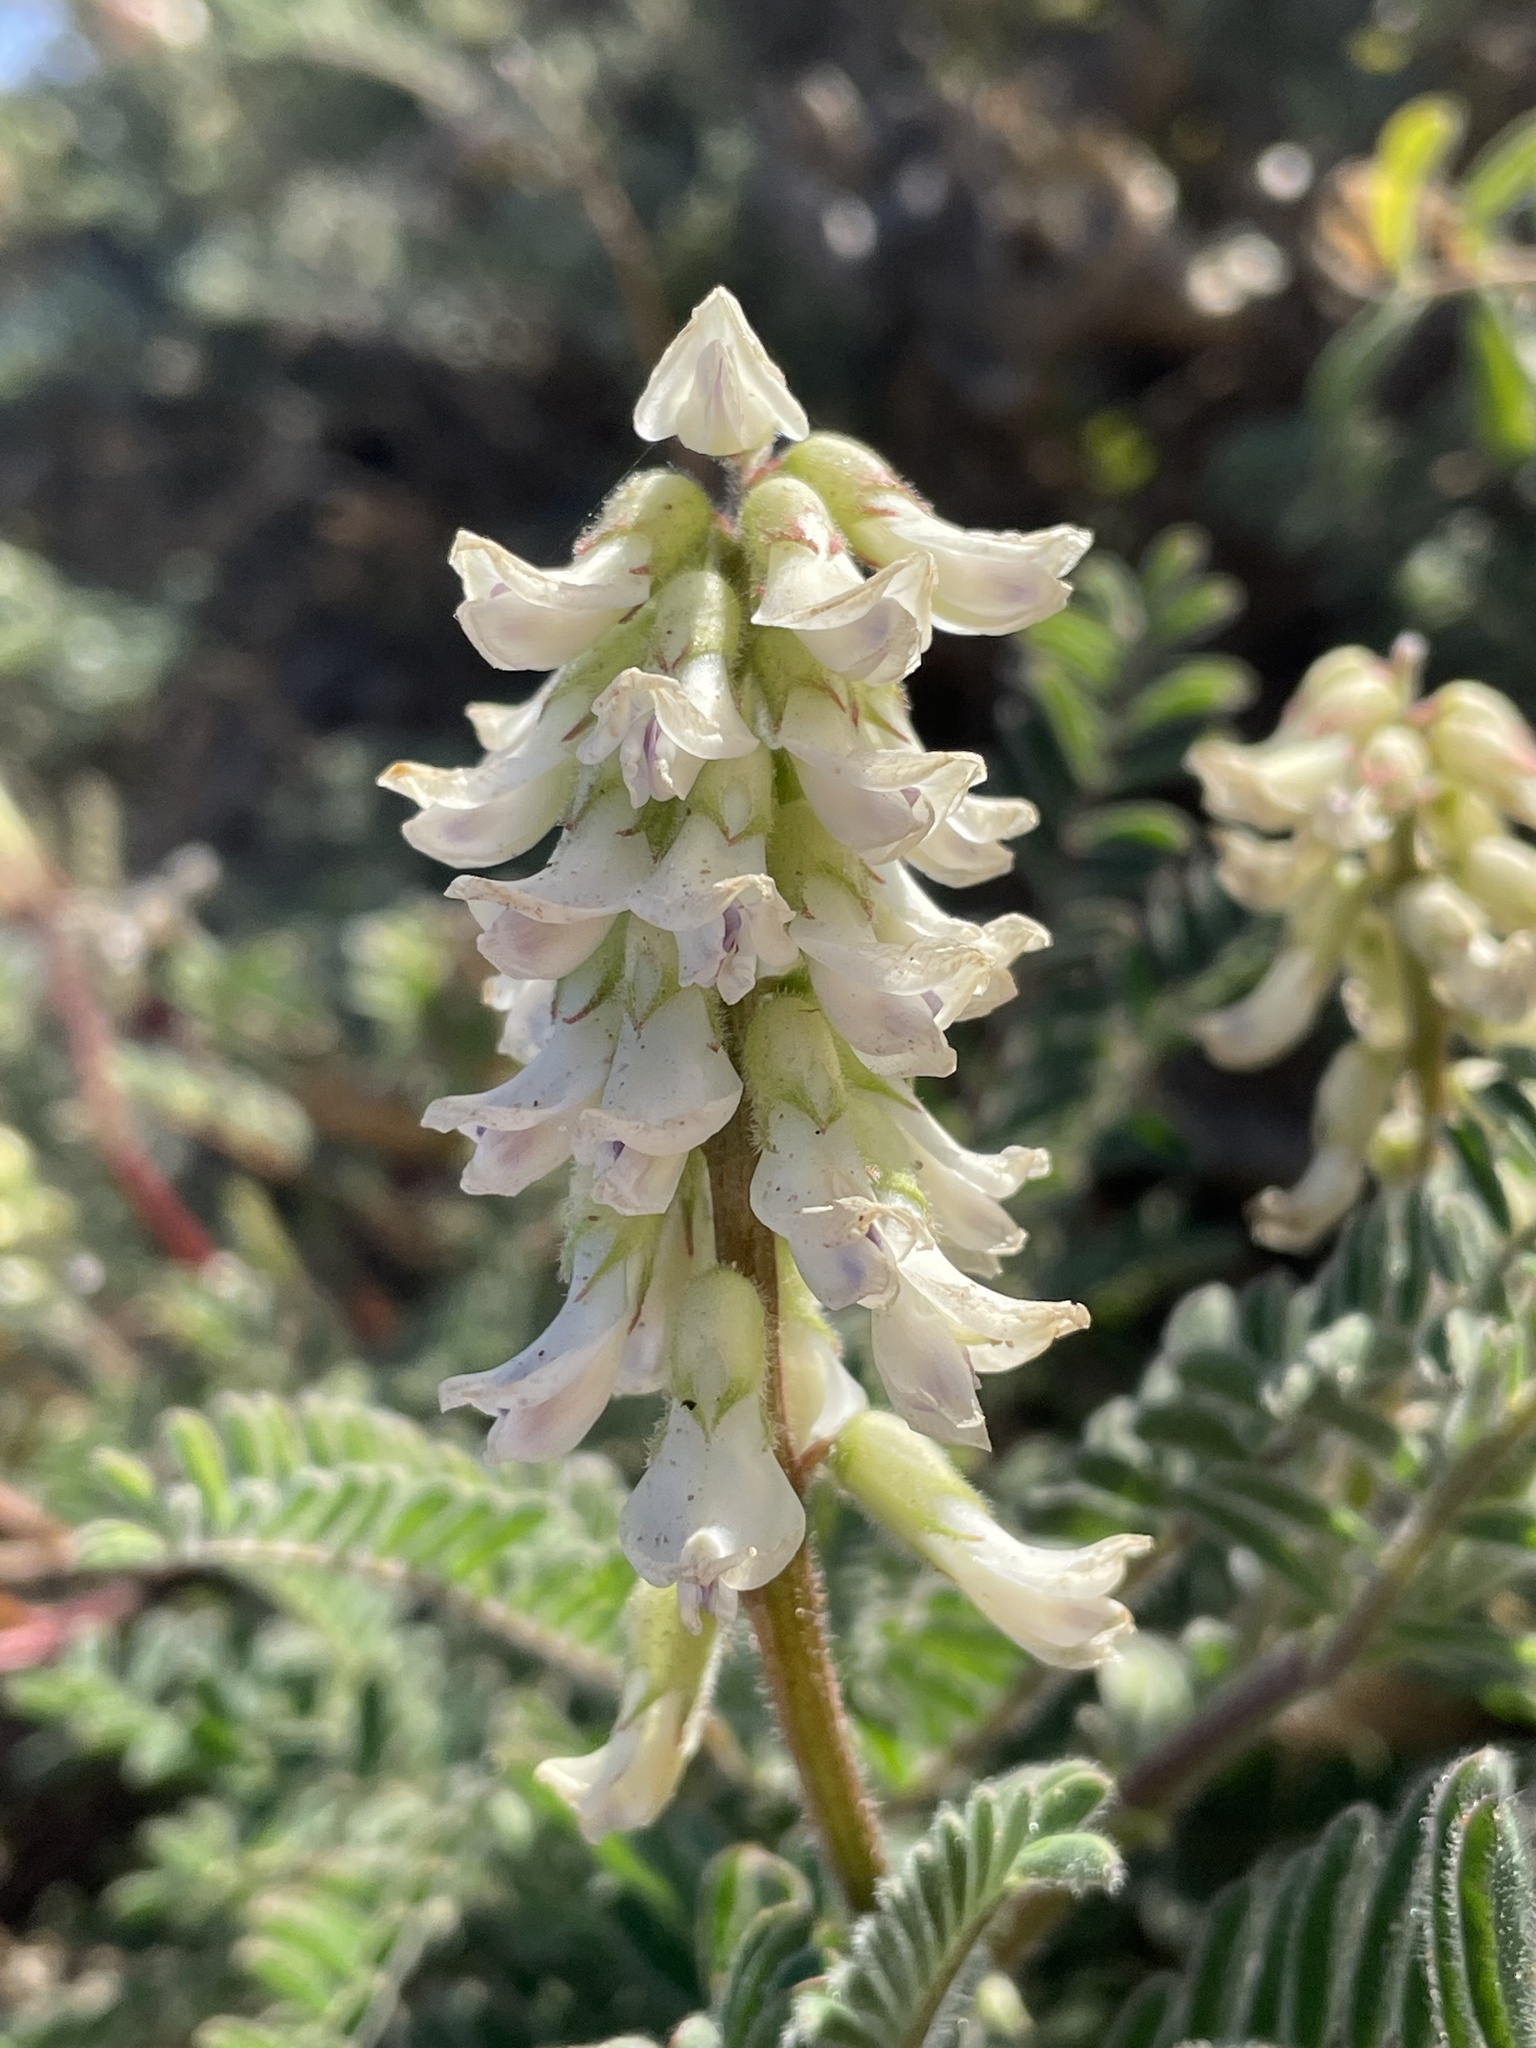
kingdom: Plantae
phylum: Tracheophyta
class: Magnoliopsida
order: Fabales
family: Fabaceae
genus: Astragalus
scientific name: Astragalus nuttallii
